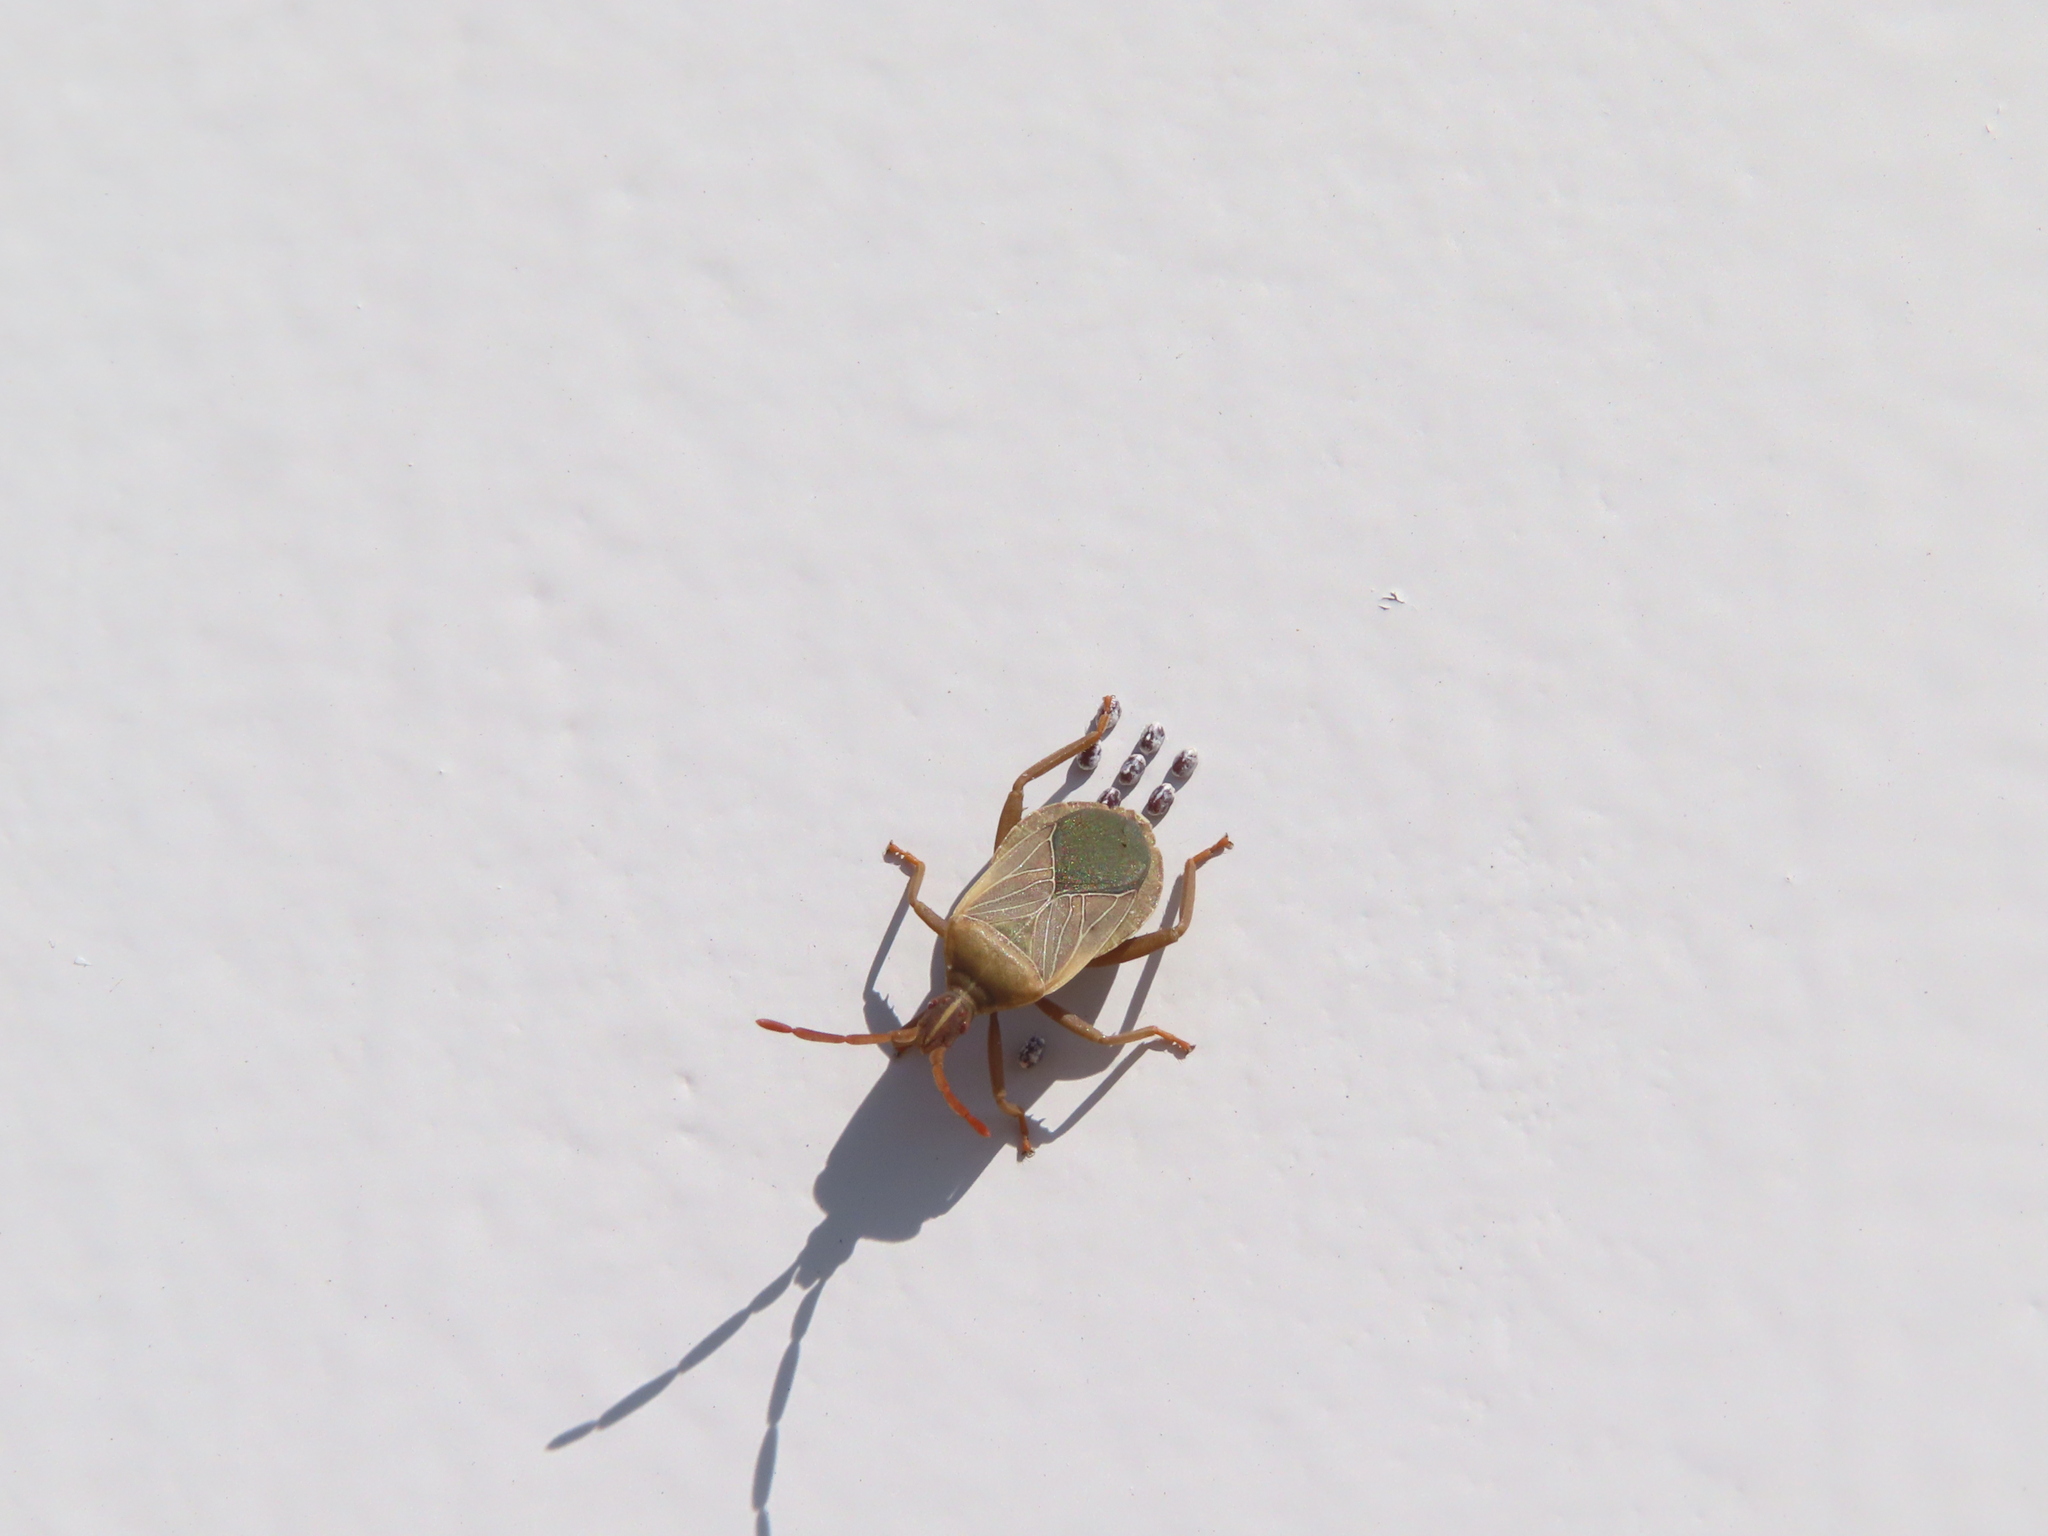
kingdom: Animalia
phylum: Arthropoda
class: Insecta
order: Hemiptera
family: Coreidae
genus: Chelinidea
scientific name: Chelinidea vittiger
